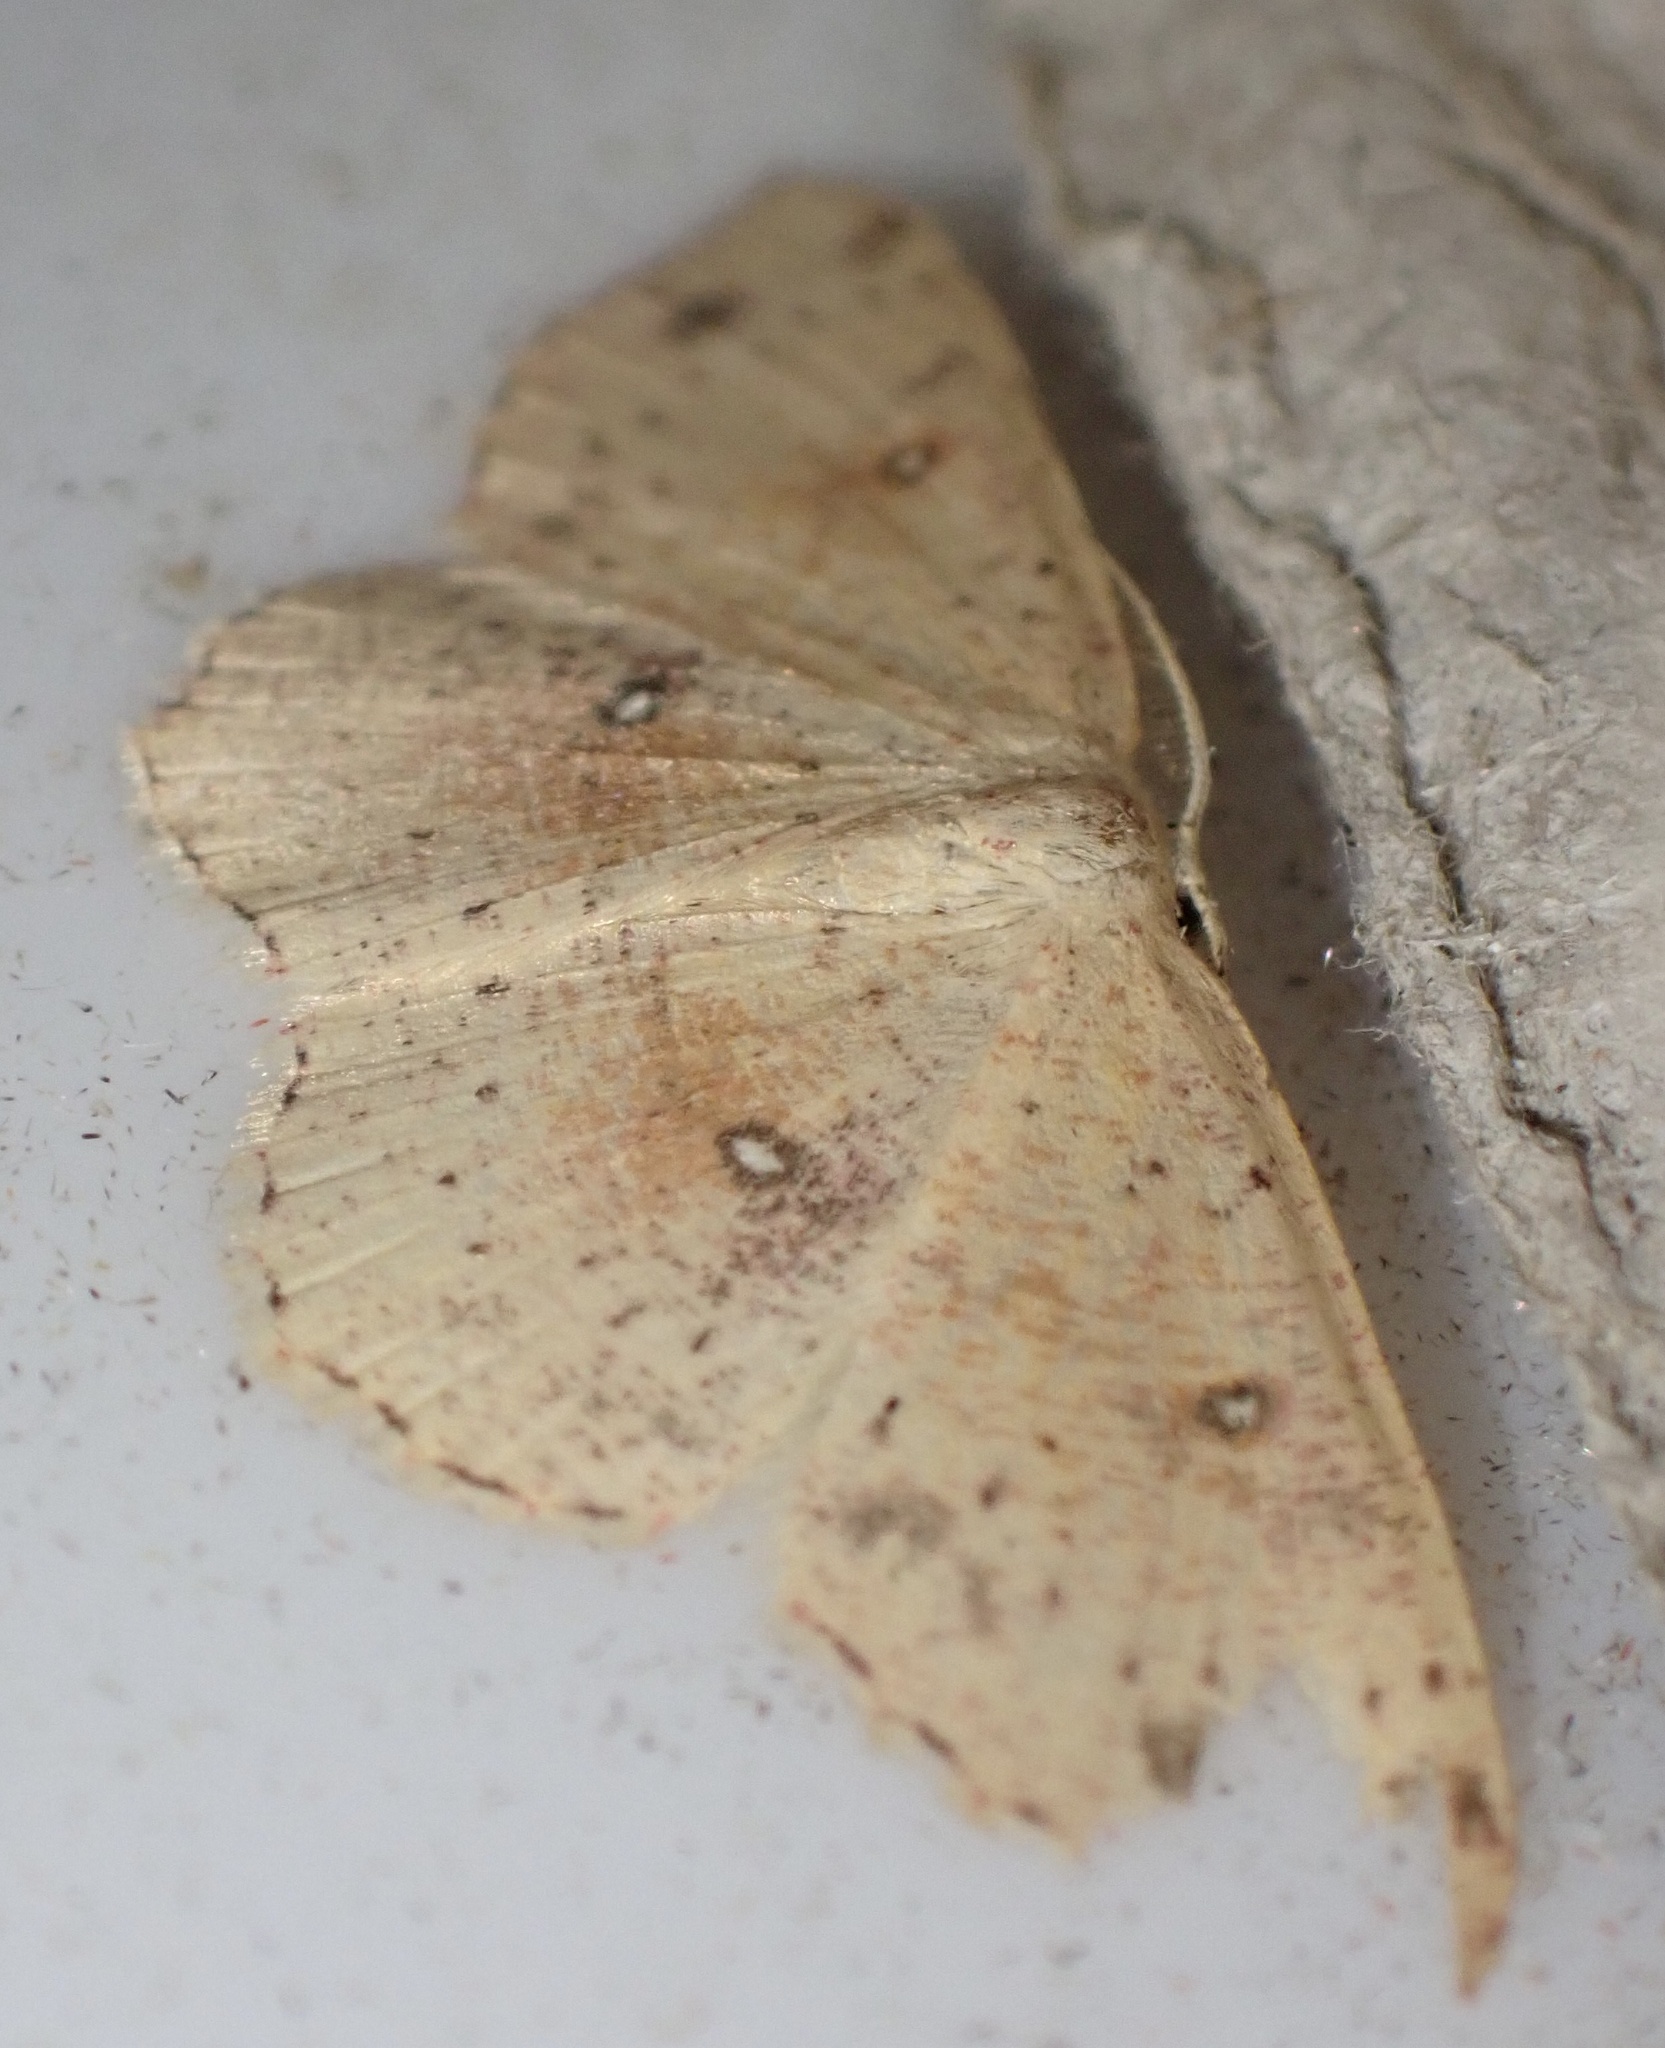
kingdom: Animalia
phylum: Arthropoda
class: Insecta
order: Lepidoptera
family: Geometridae
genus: Cyclophora
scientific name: Cyclophora porata
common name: False mocha
